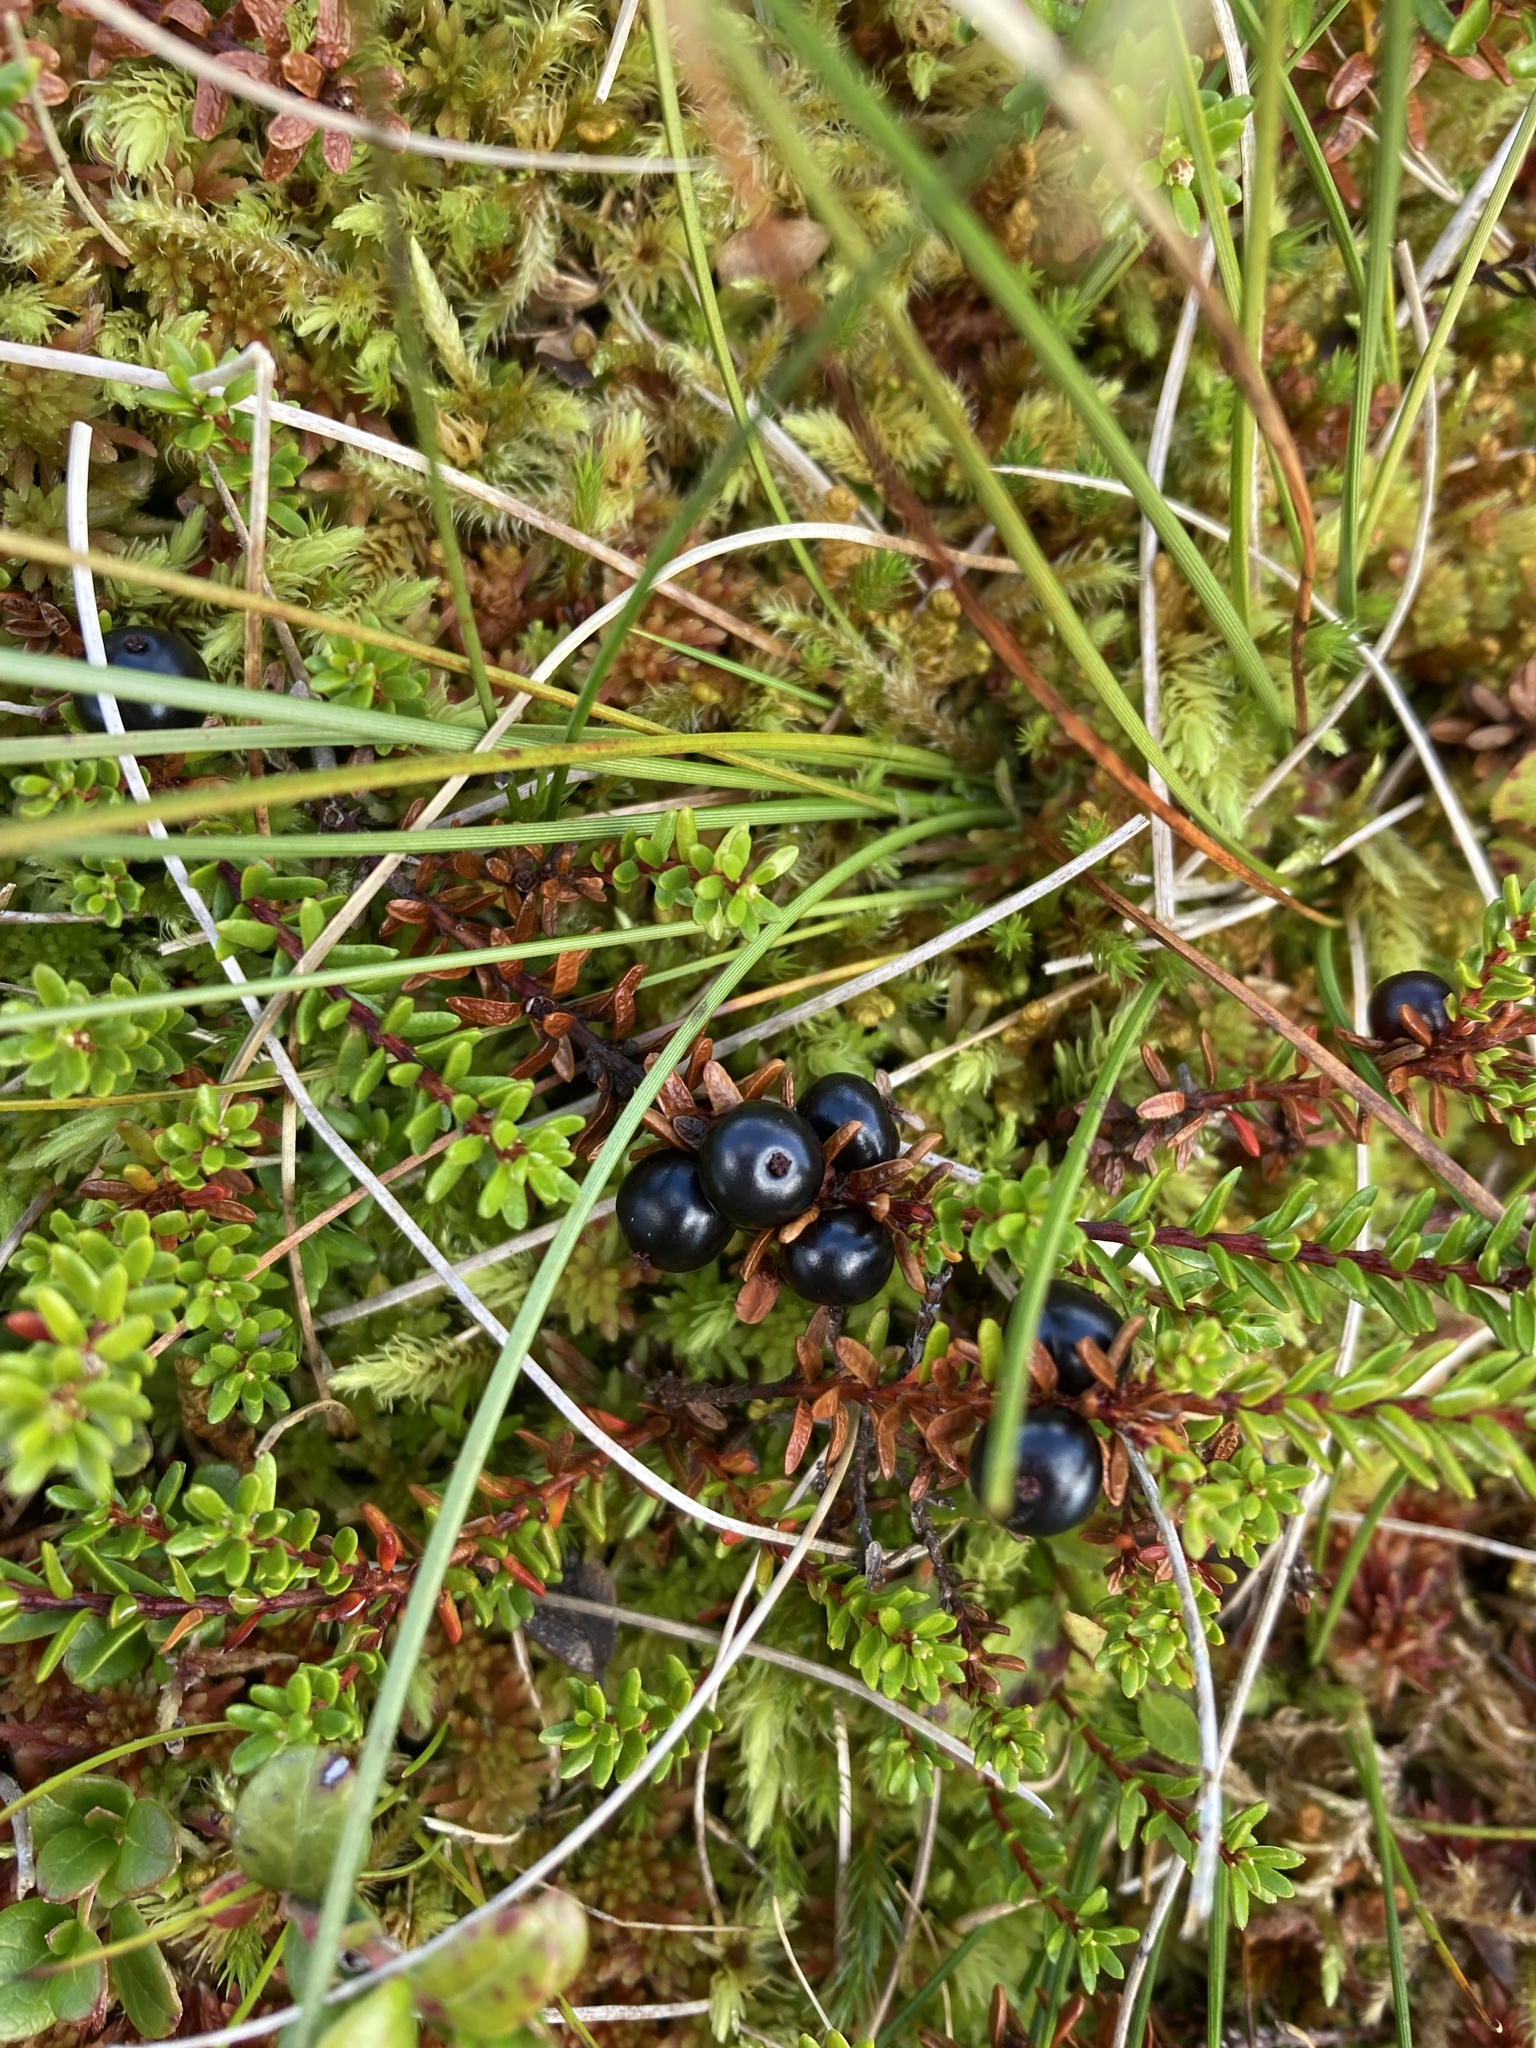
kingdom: Plantae
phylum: Tracheophyta
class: Magnoliopsida
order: Ericales
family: Ericaceae
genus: Empetrum
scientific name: Empetrum nigrum
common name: Black crowberry
